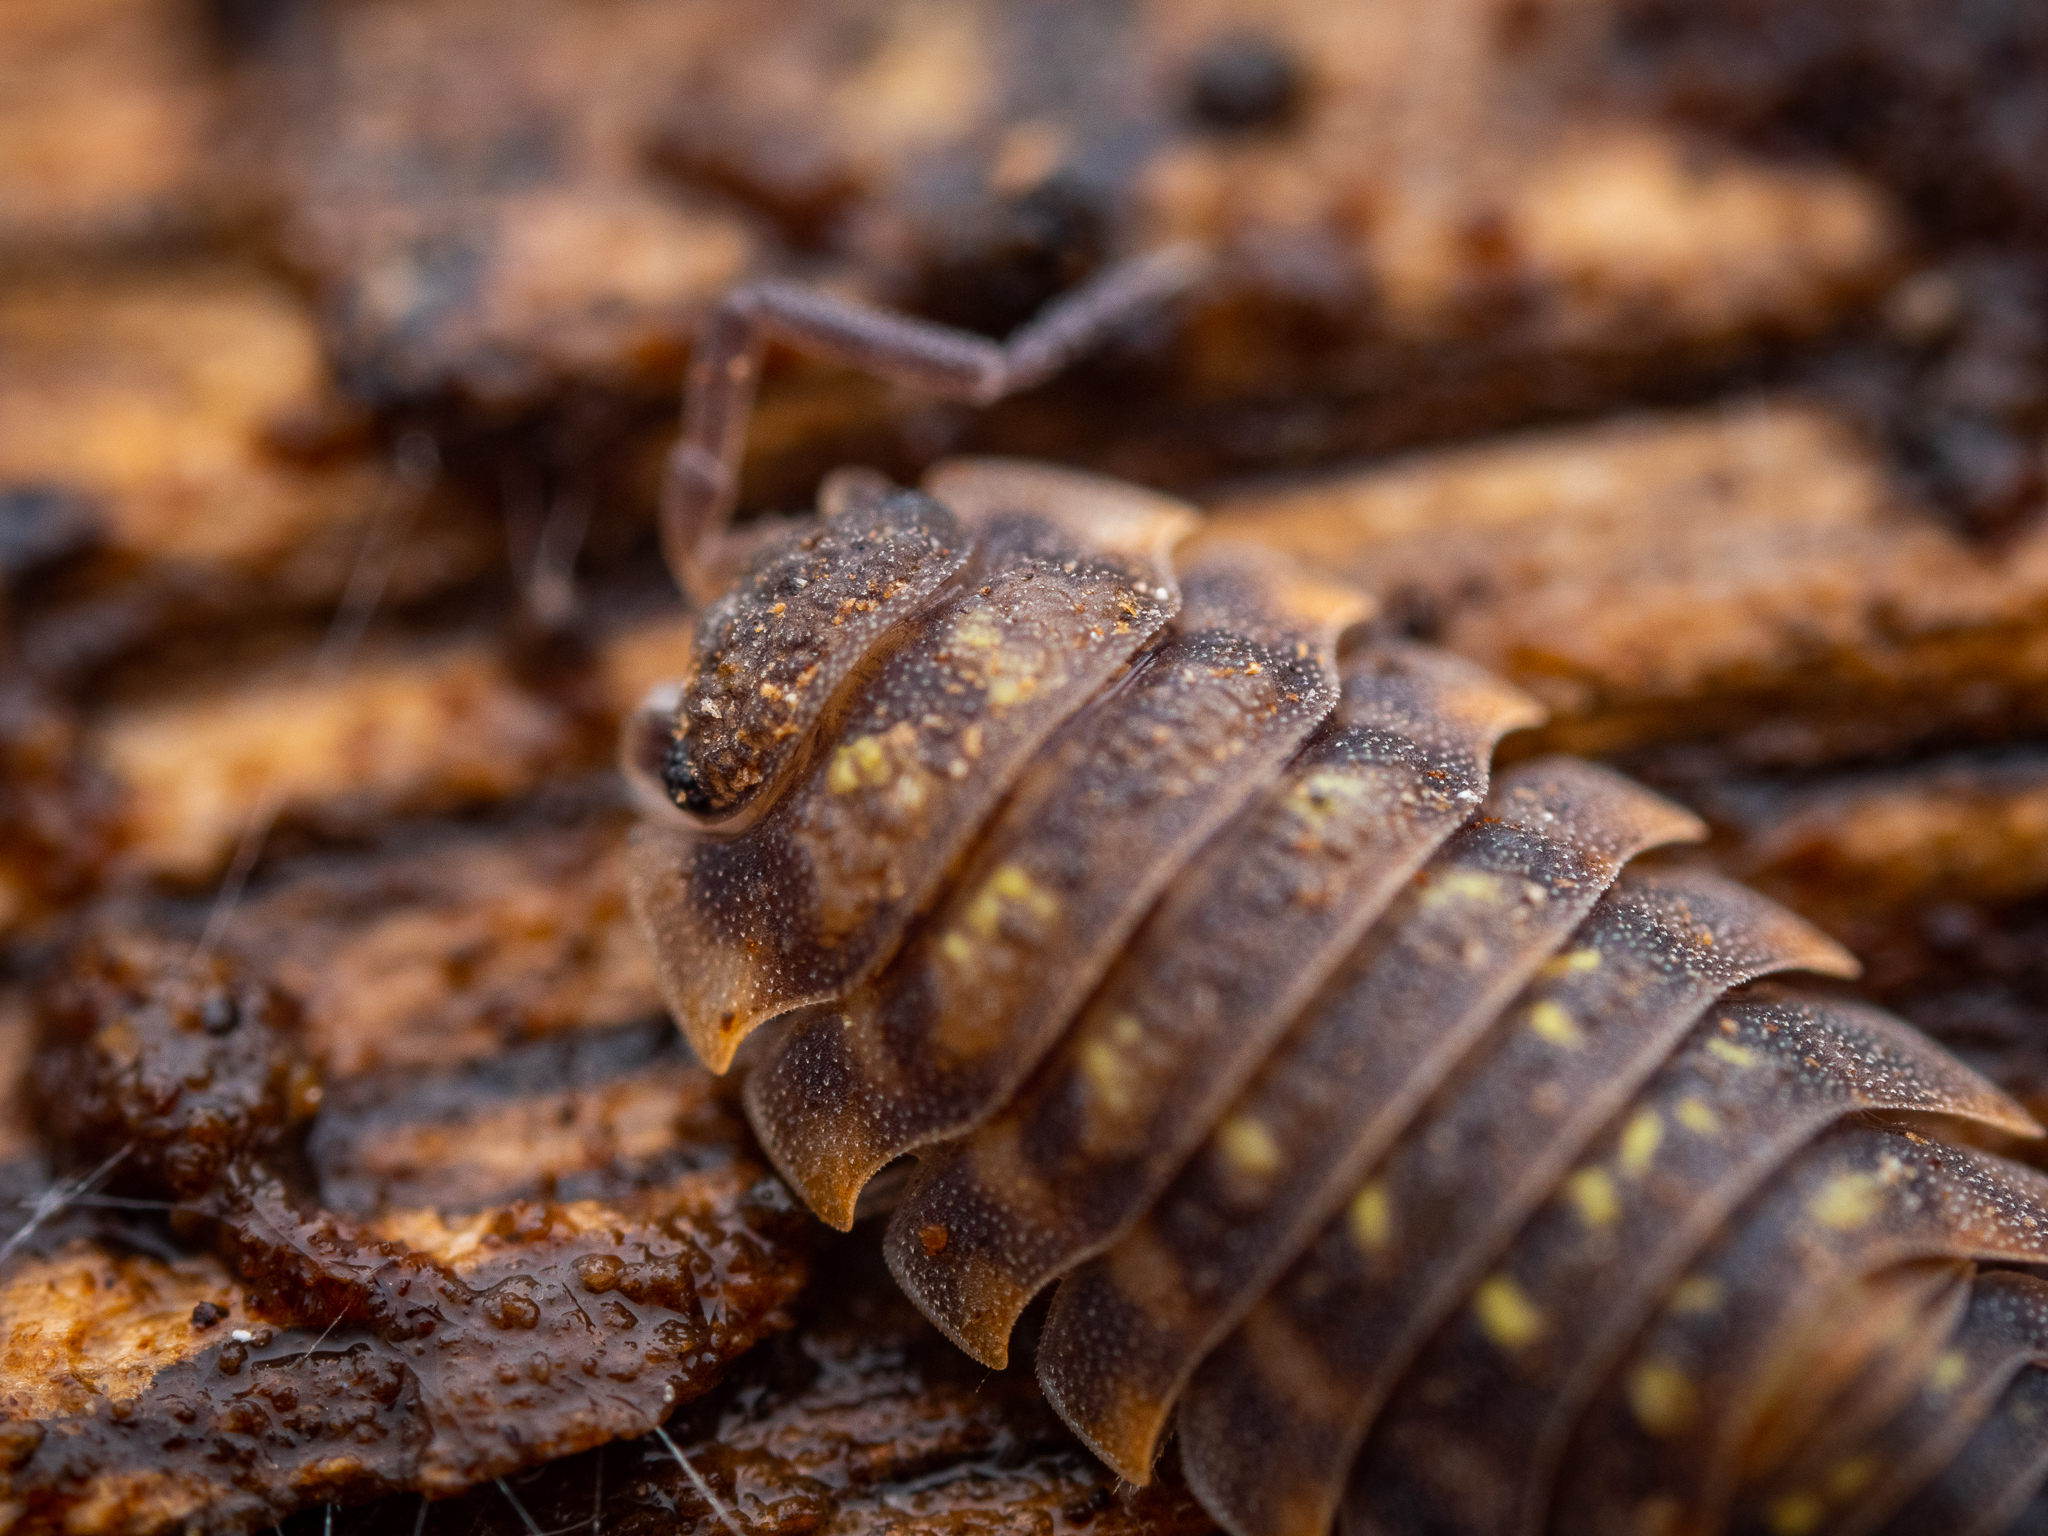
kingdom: Animalia
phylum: Arthropoda
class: Malacostraca
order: Isopoda
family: Oniscidae
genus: Oniscus
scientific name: Oniscus asellus
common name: Common shiny woodlouse
